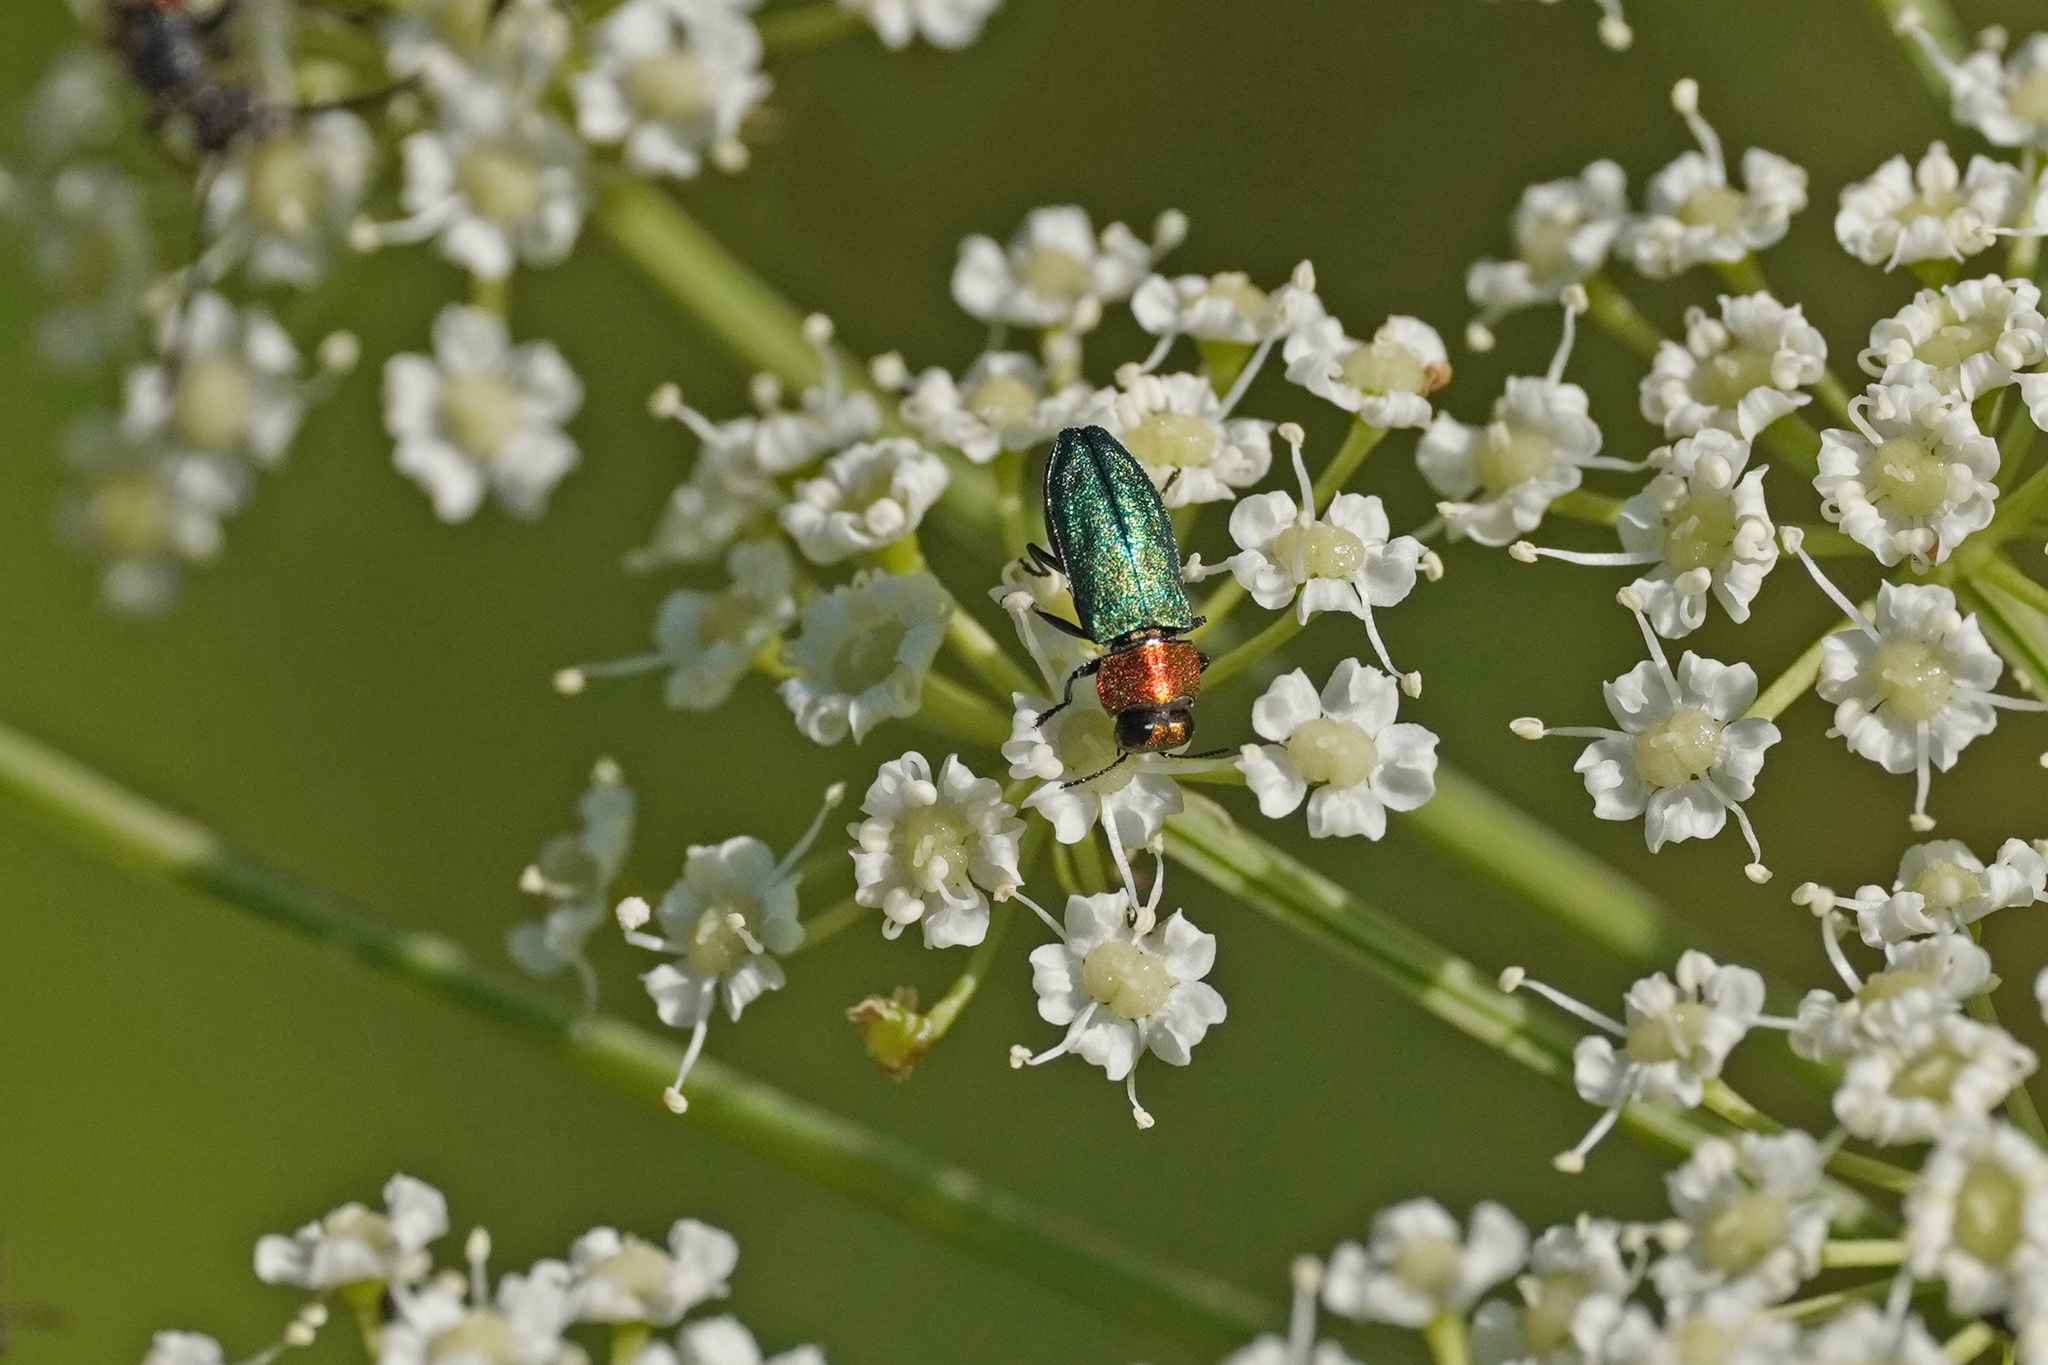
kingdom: Animalia
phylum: Arthropoda
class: Insecta
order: Coleoptera
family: Buprestidae
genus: Anthaxia
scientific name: Anthaxia nitidula
